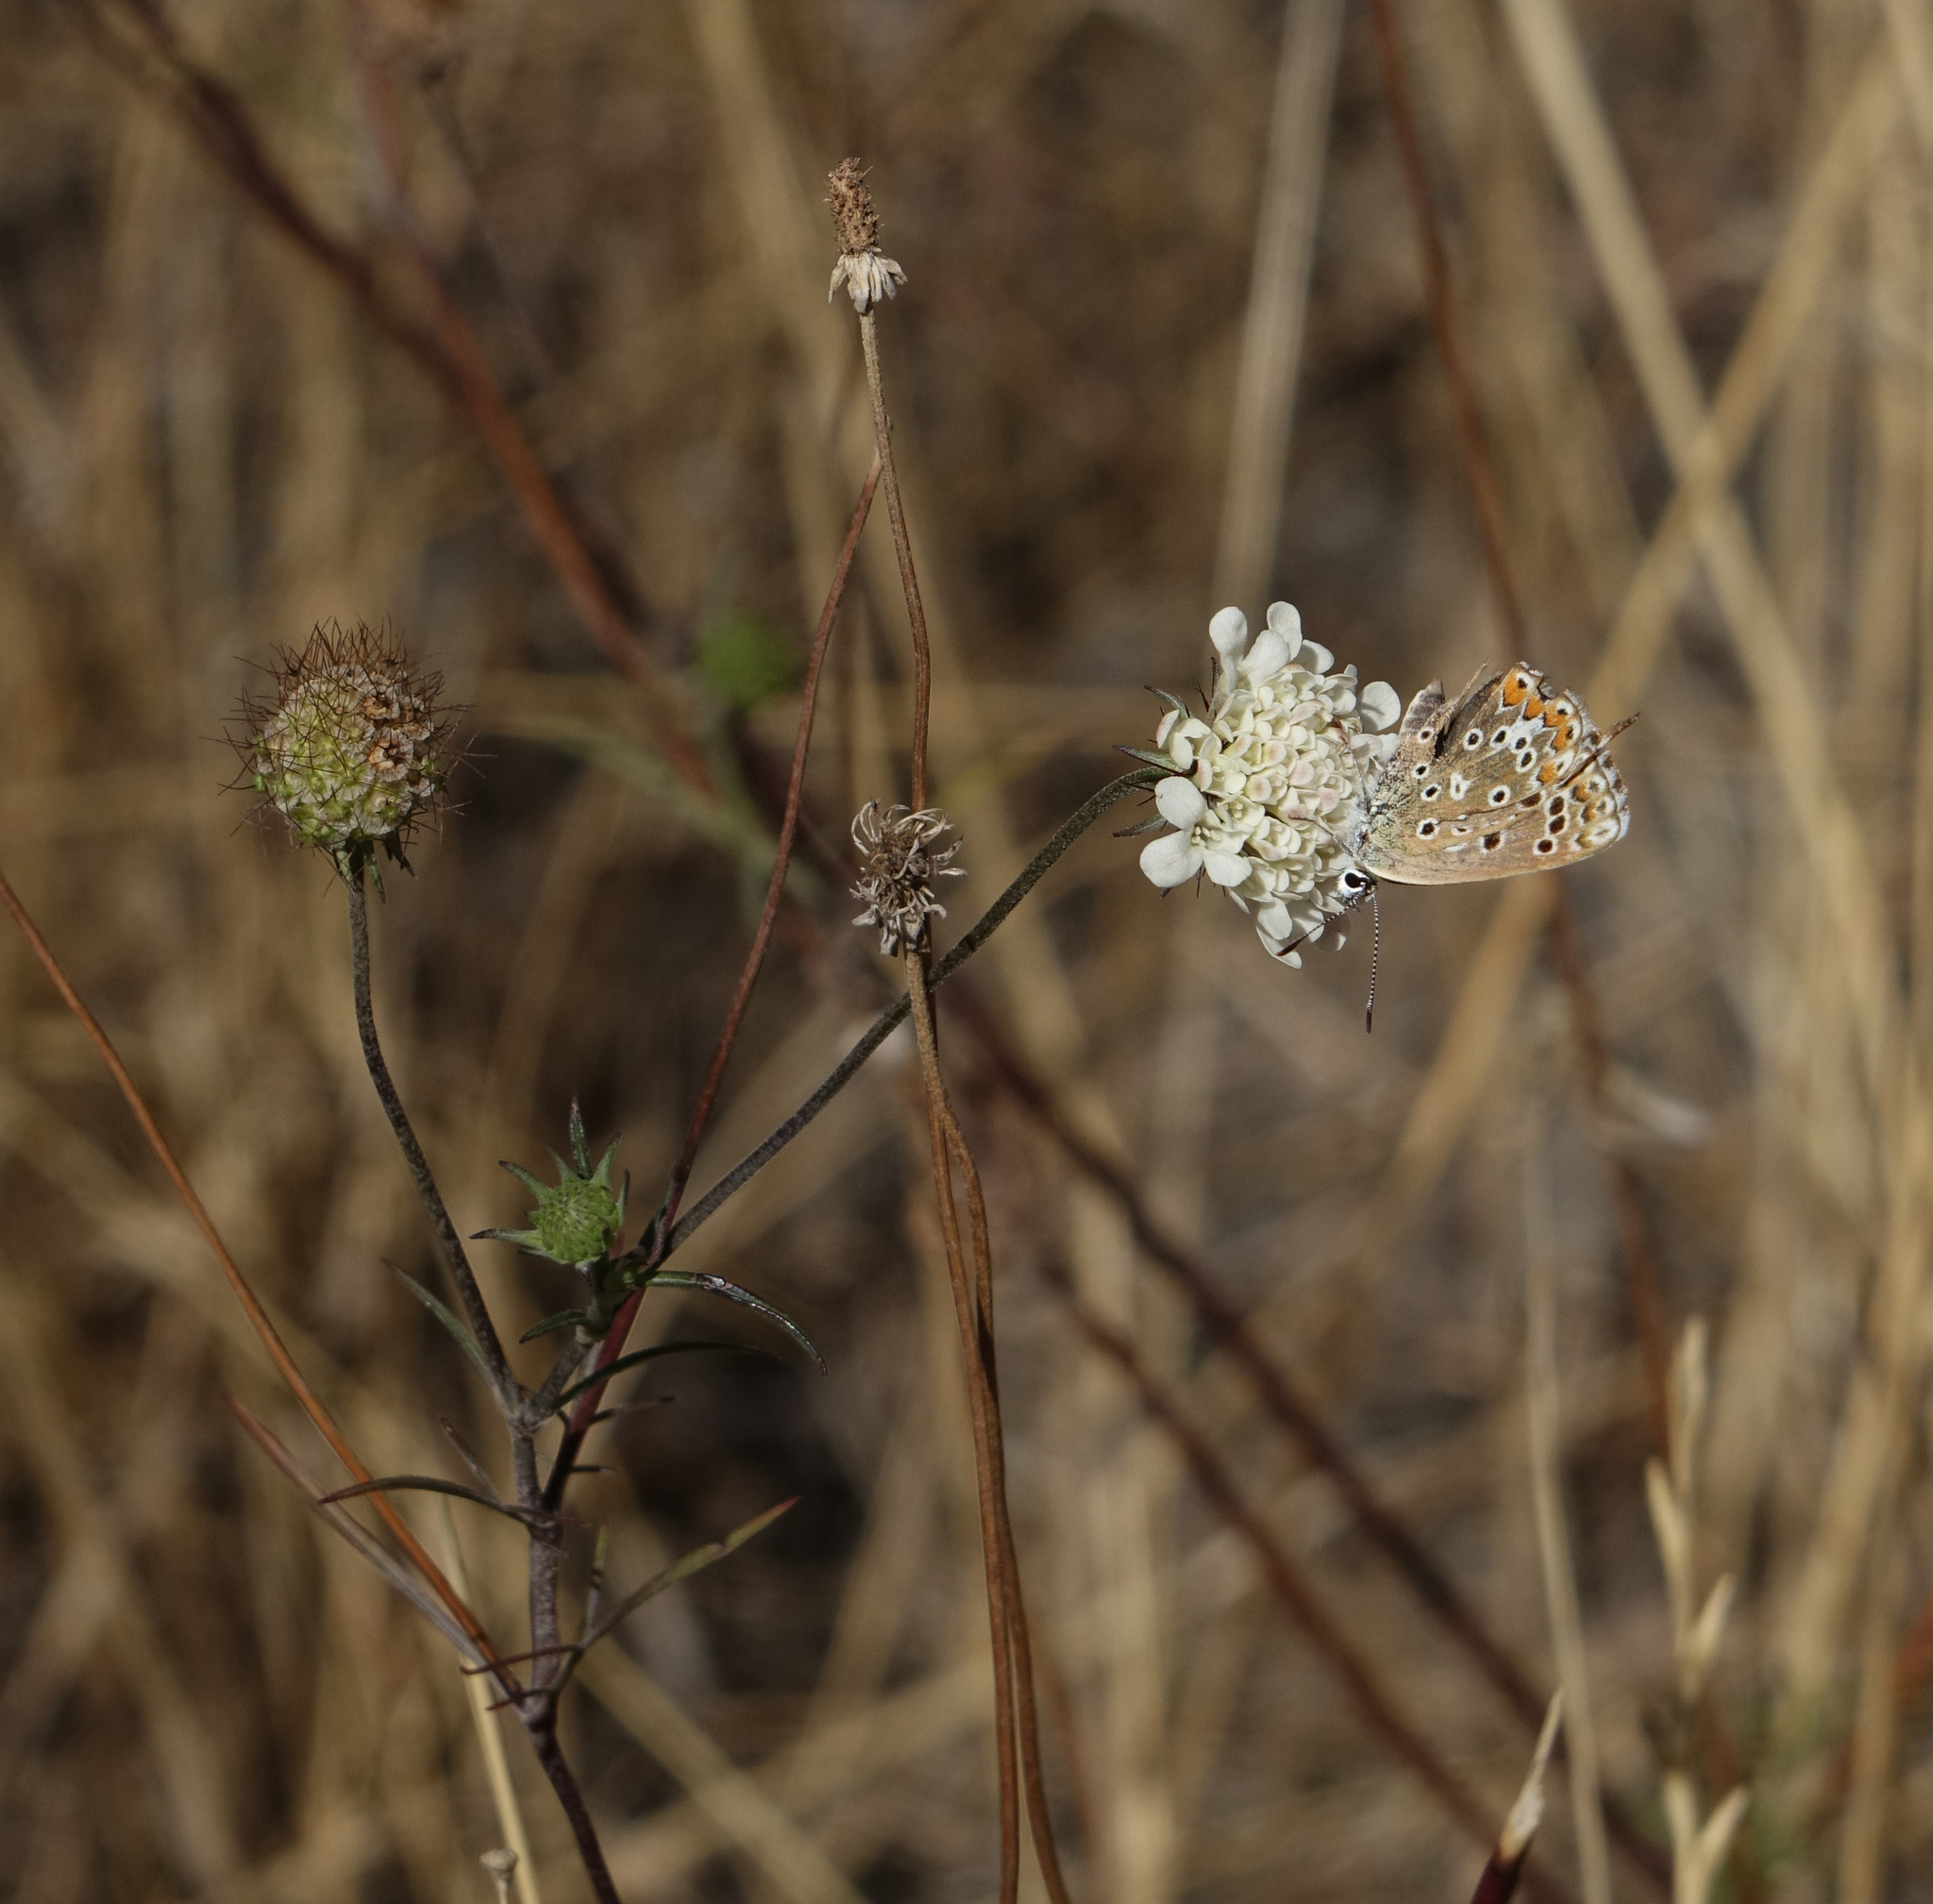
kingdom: Plantae
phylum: Tracheophyta
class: Magnoliopsida
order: Dipsacales
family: Caprifoliaceae
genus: Scabiosa
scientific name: Scabiosa ochroleuca
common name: Cream pincushions
